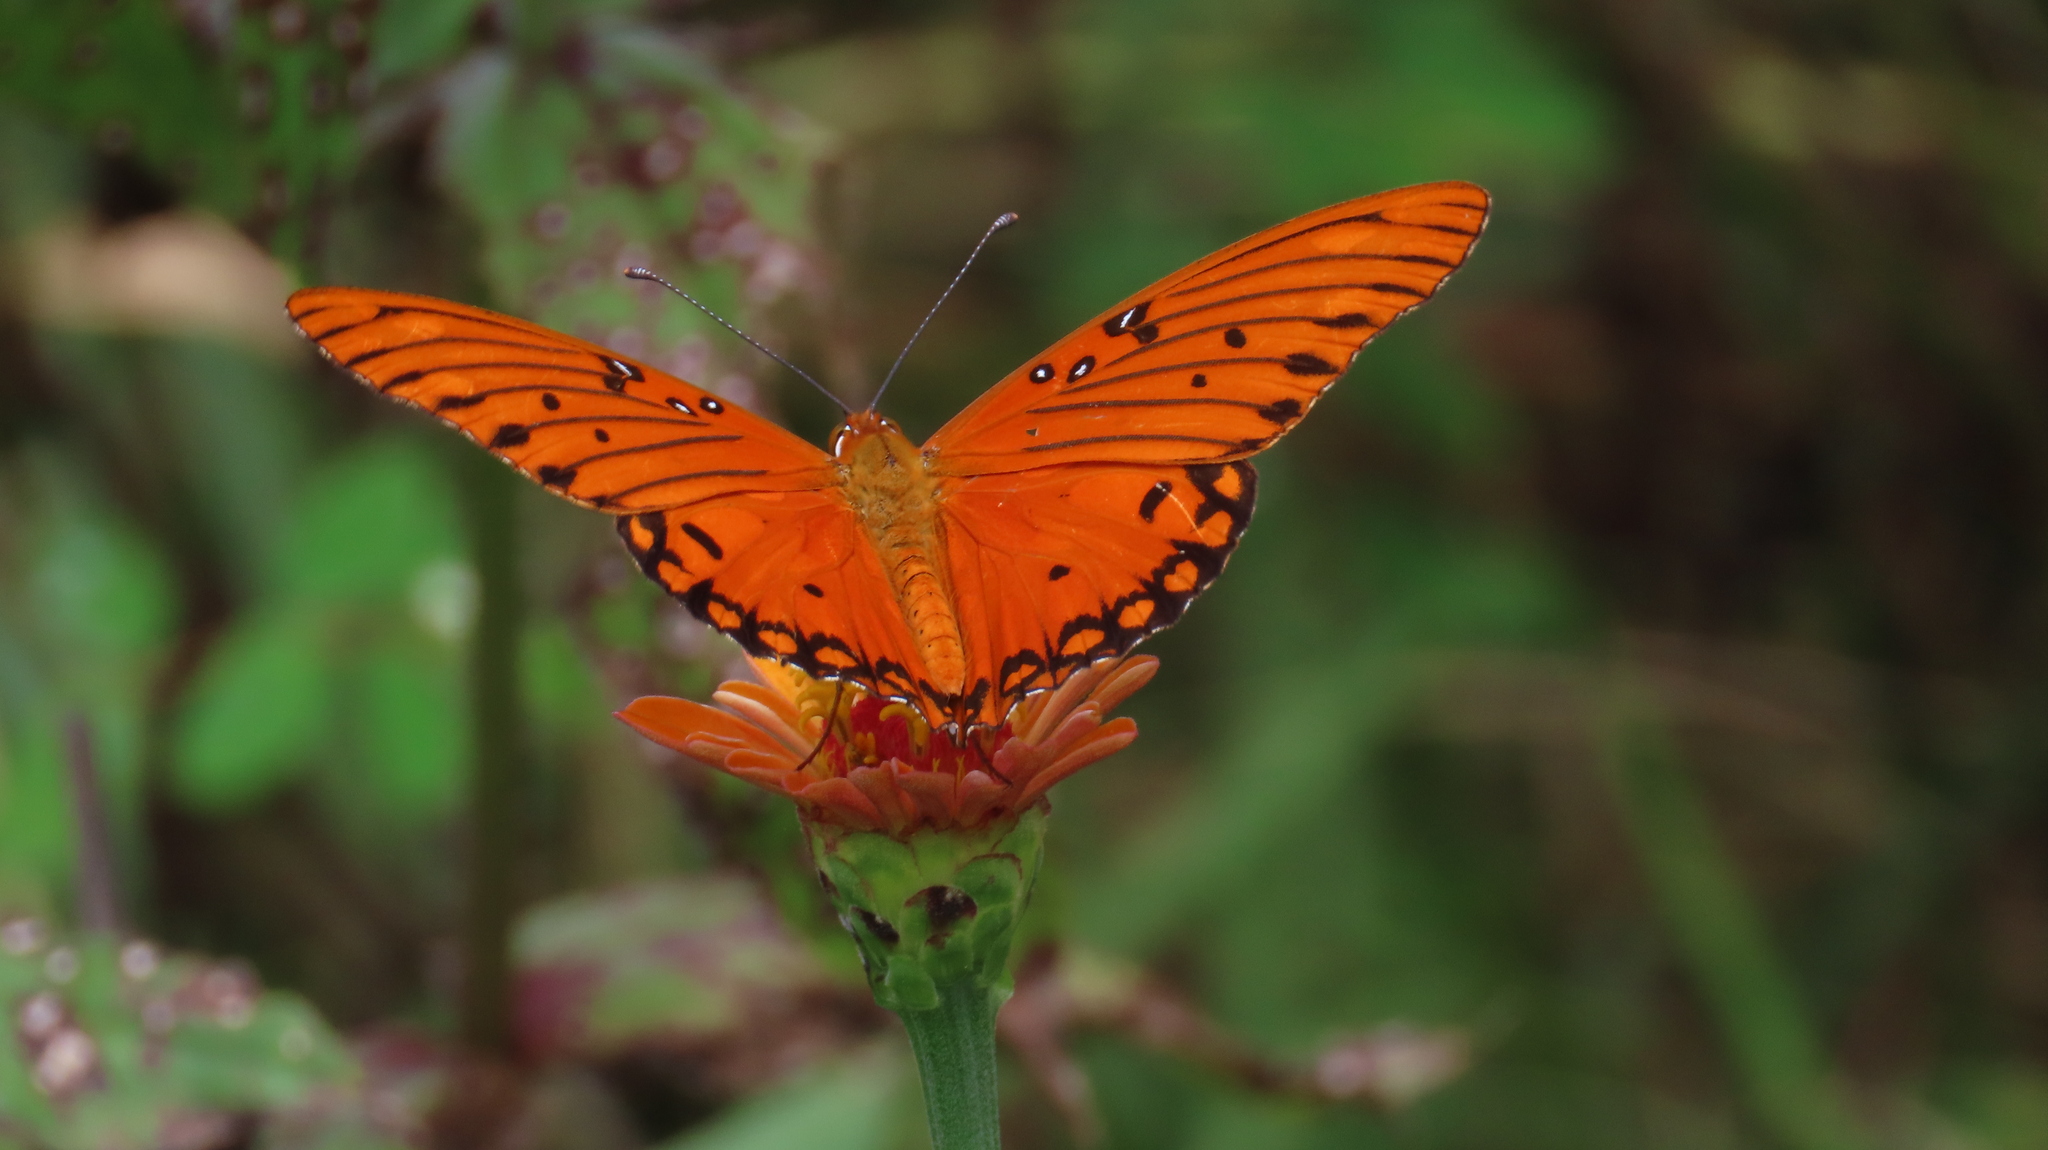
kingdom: Animalia
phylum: Arthropoda
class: Insecta
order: Lepidoptera
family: Nymphalidae
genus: Dione
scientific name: Dione vanillae
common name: Gulf fritillary
